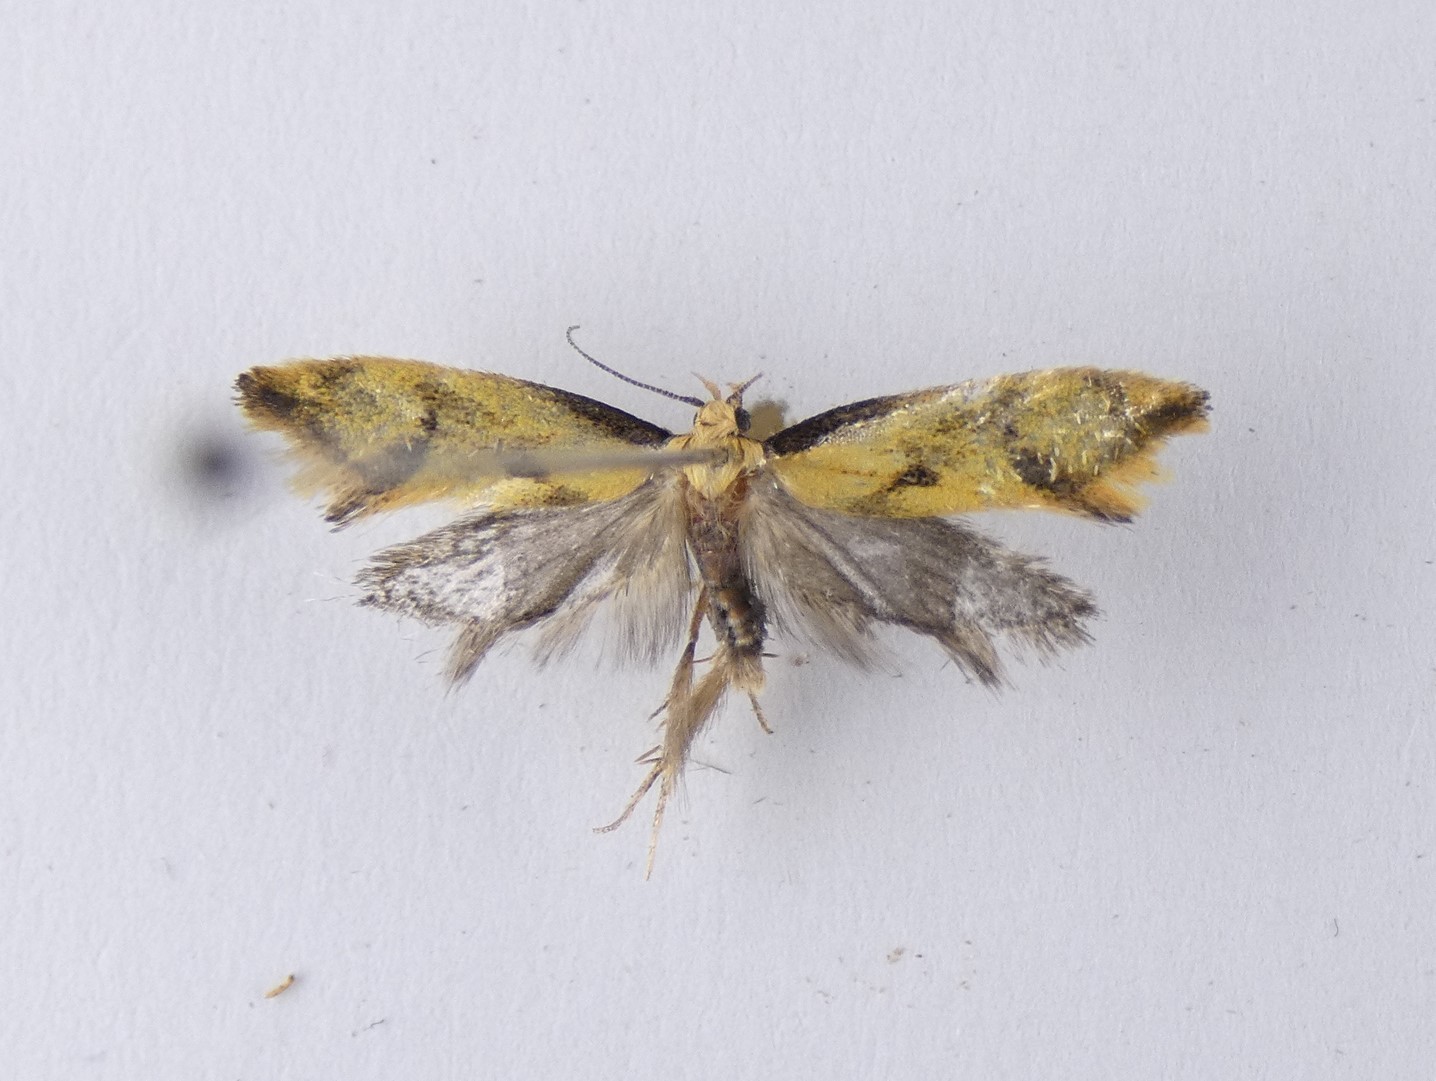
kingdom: Animalia
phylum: Arthropoda
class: Insecta
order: Lepidoptera
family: Oecophoridae
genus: Tingena
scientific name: Tingena actinias
